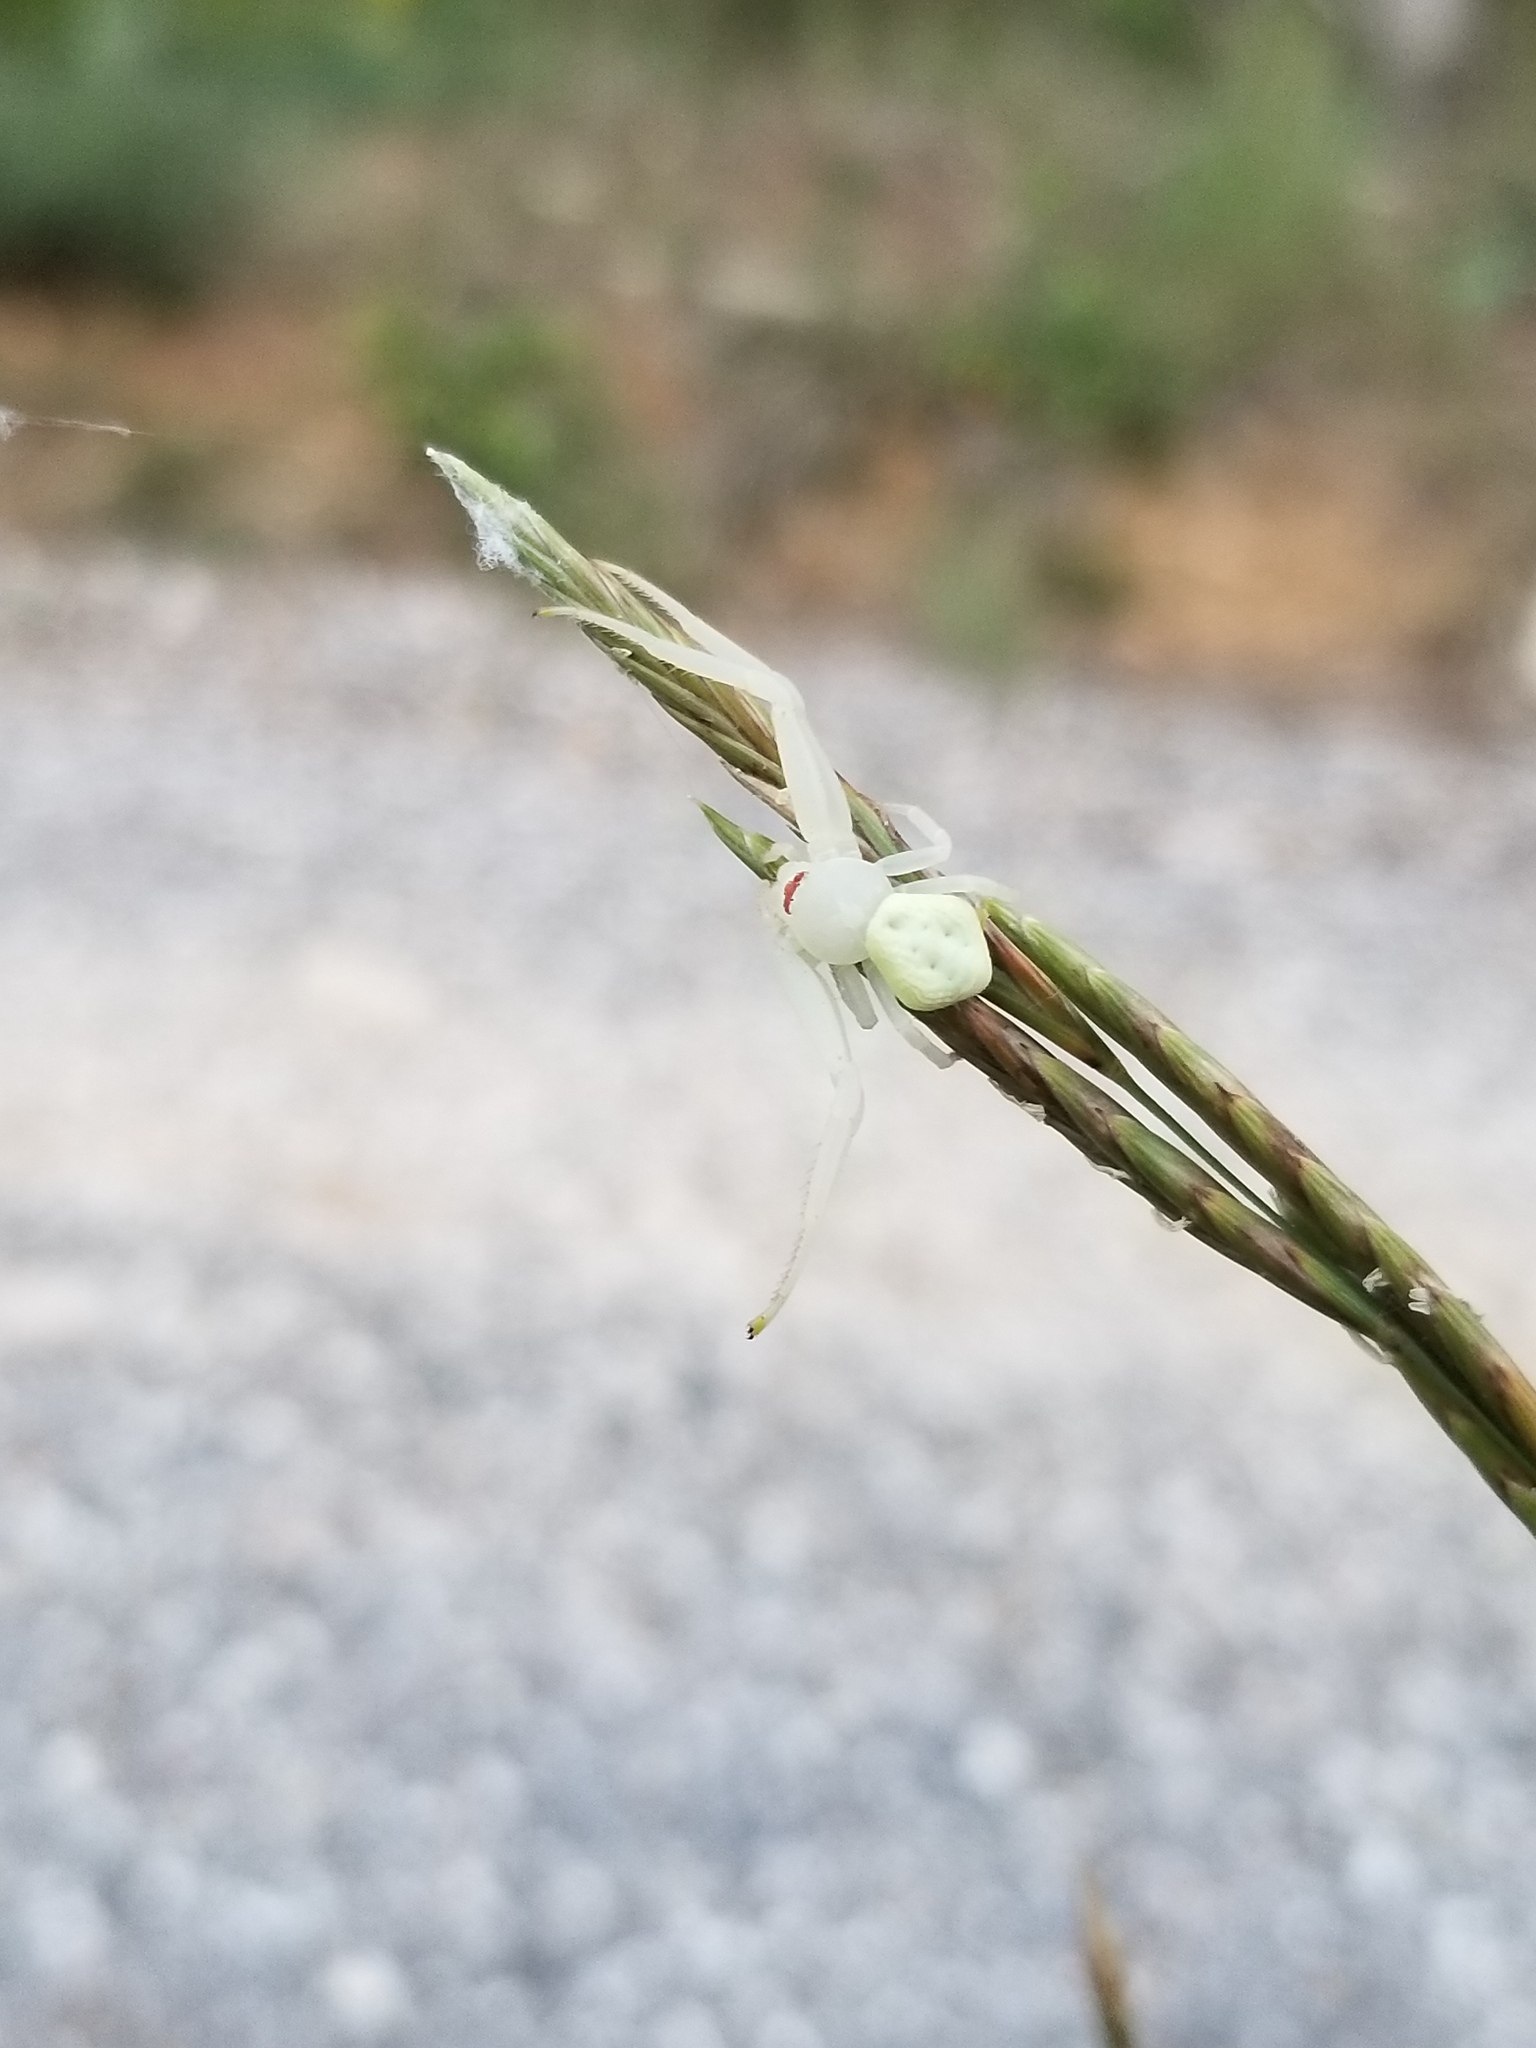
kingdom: Animalia
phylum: Arthropoda
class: Arachnida
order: Araneae
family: Thomisidae
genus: Misumena
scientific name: Misumena vatia
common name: Goldenrod crab spider
